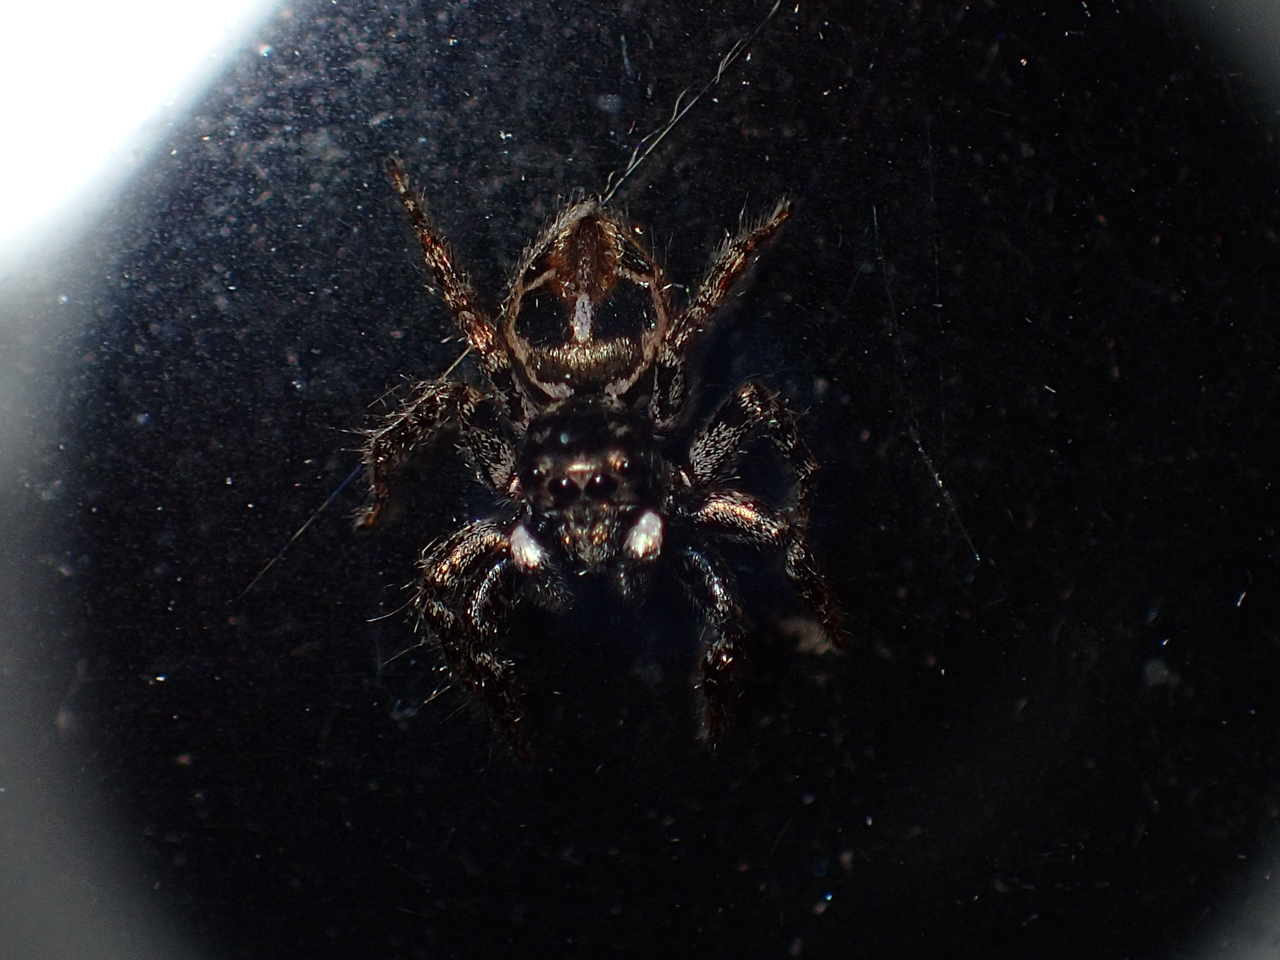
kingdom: Animalia
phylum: Arthropoda
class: Arachnida
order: Araneae
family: Salticidae
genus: Anasaitis
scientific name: Anasaitis canosa
